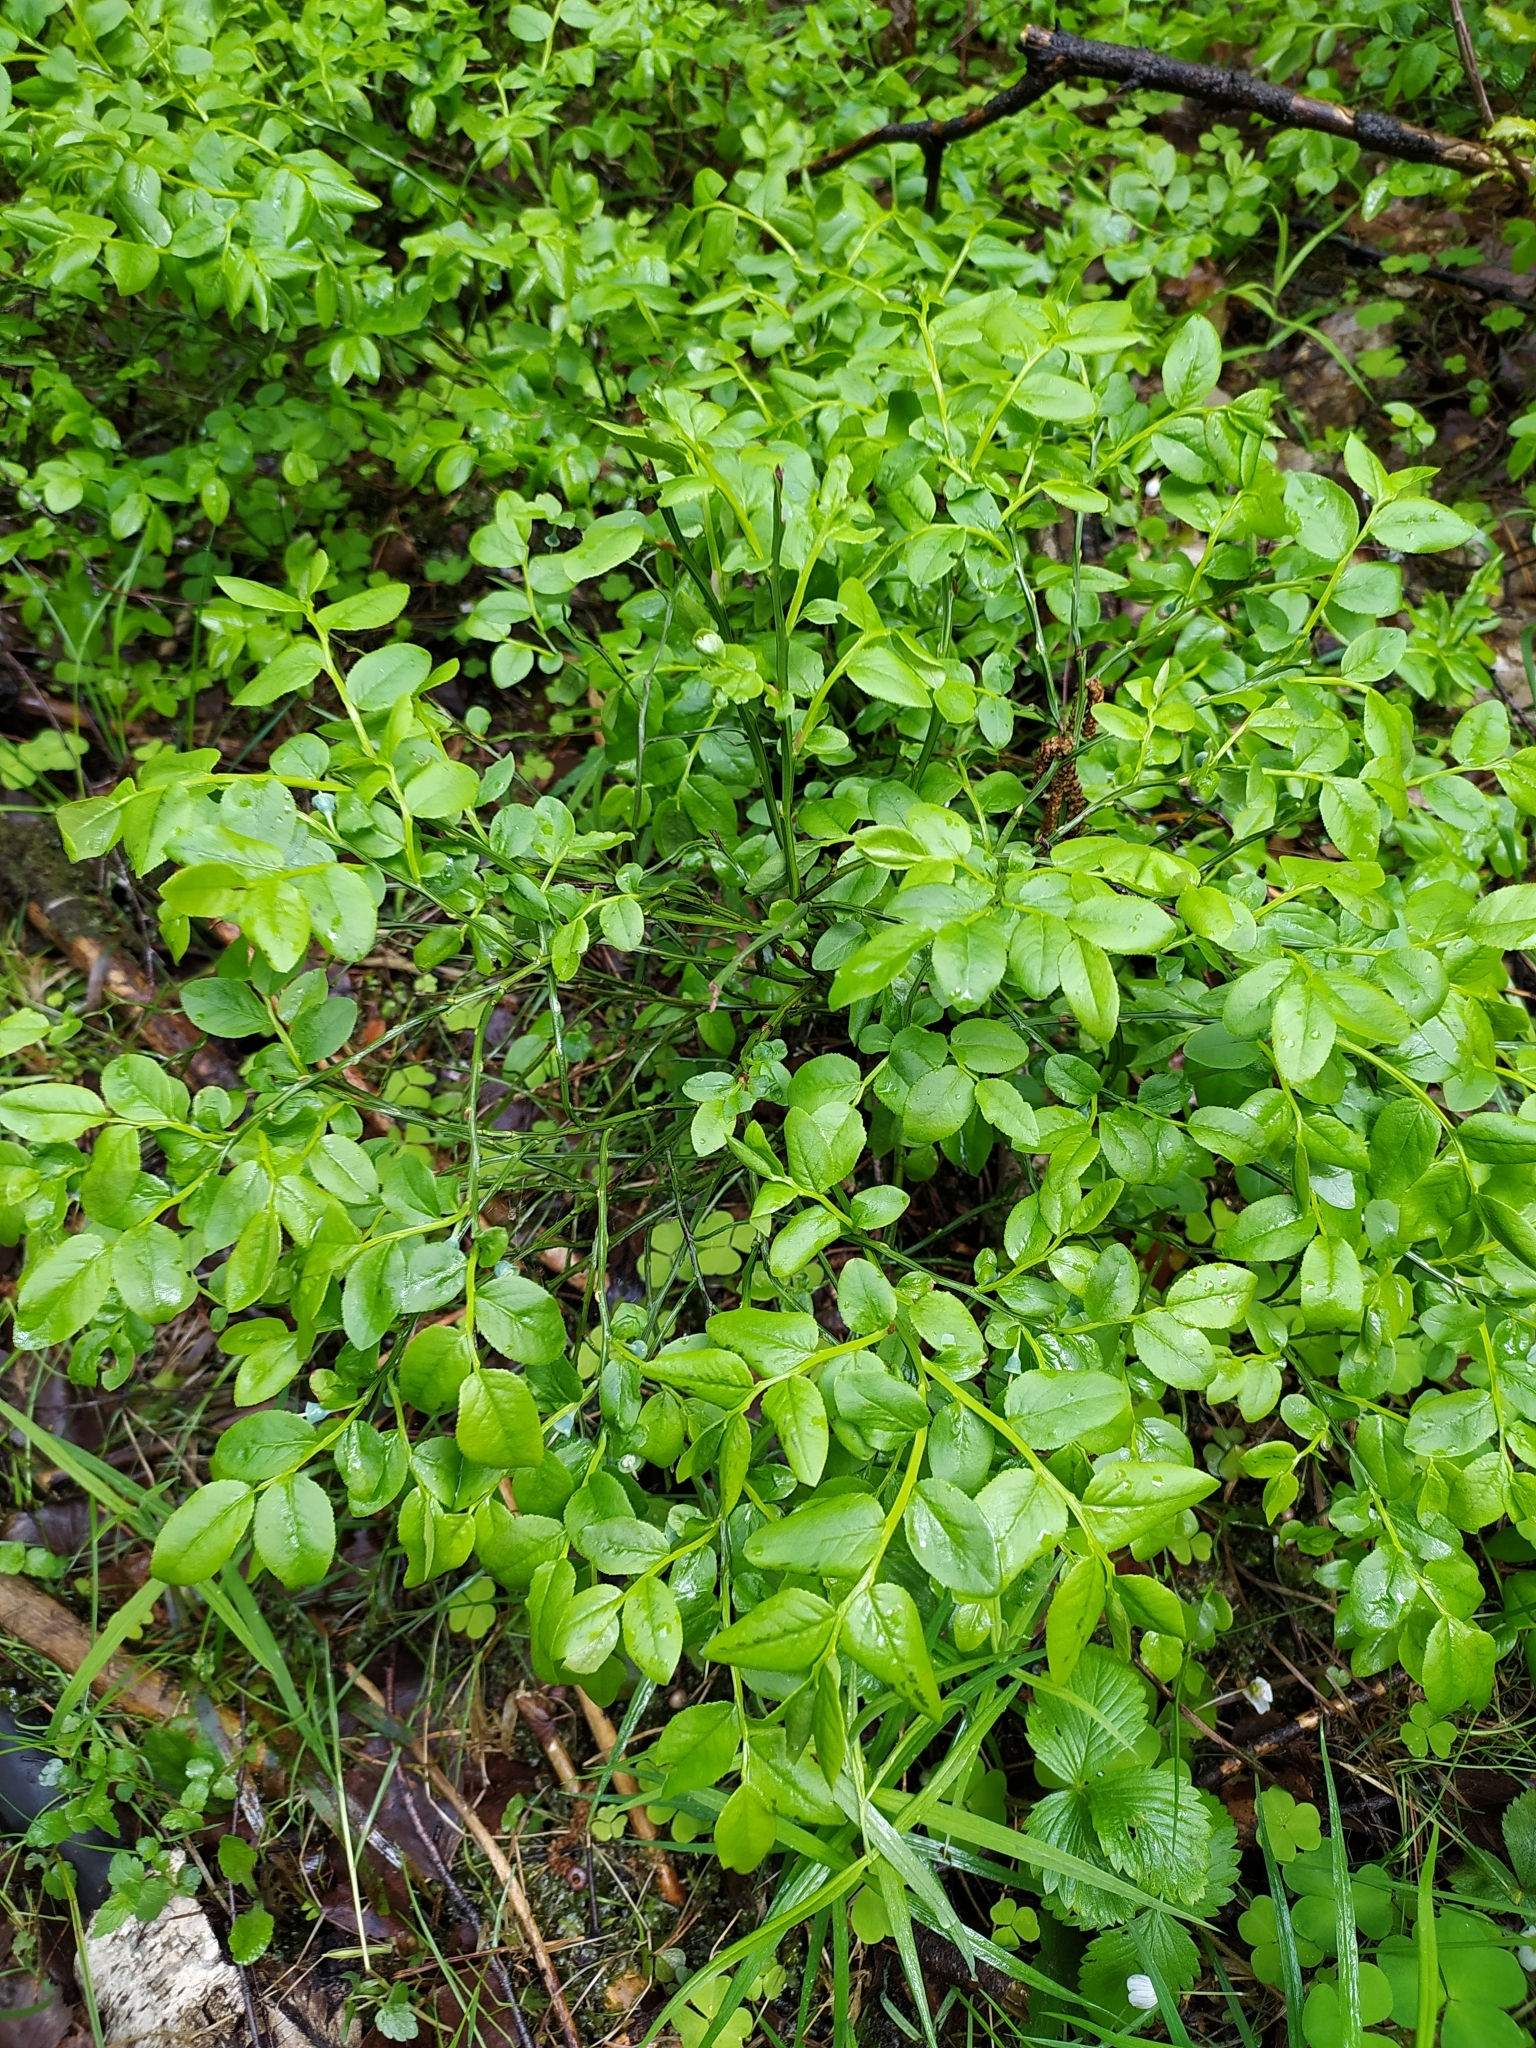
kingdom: Plantae
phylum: Tracheophyta
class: Magnoliopsida
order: Ericales
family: Ericaceae
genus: Vaccinium
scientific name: Vaccinium myrtillus
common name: Bilberry
